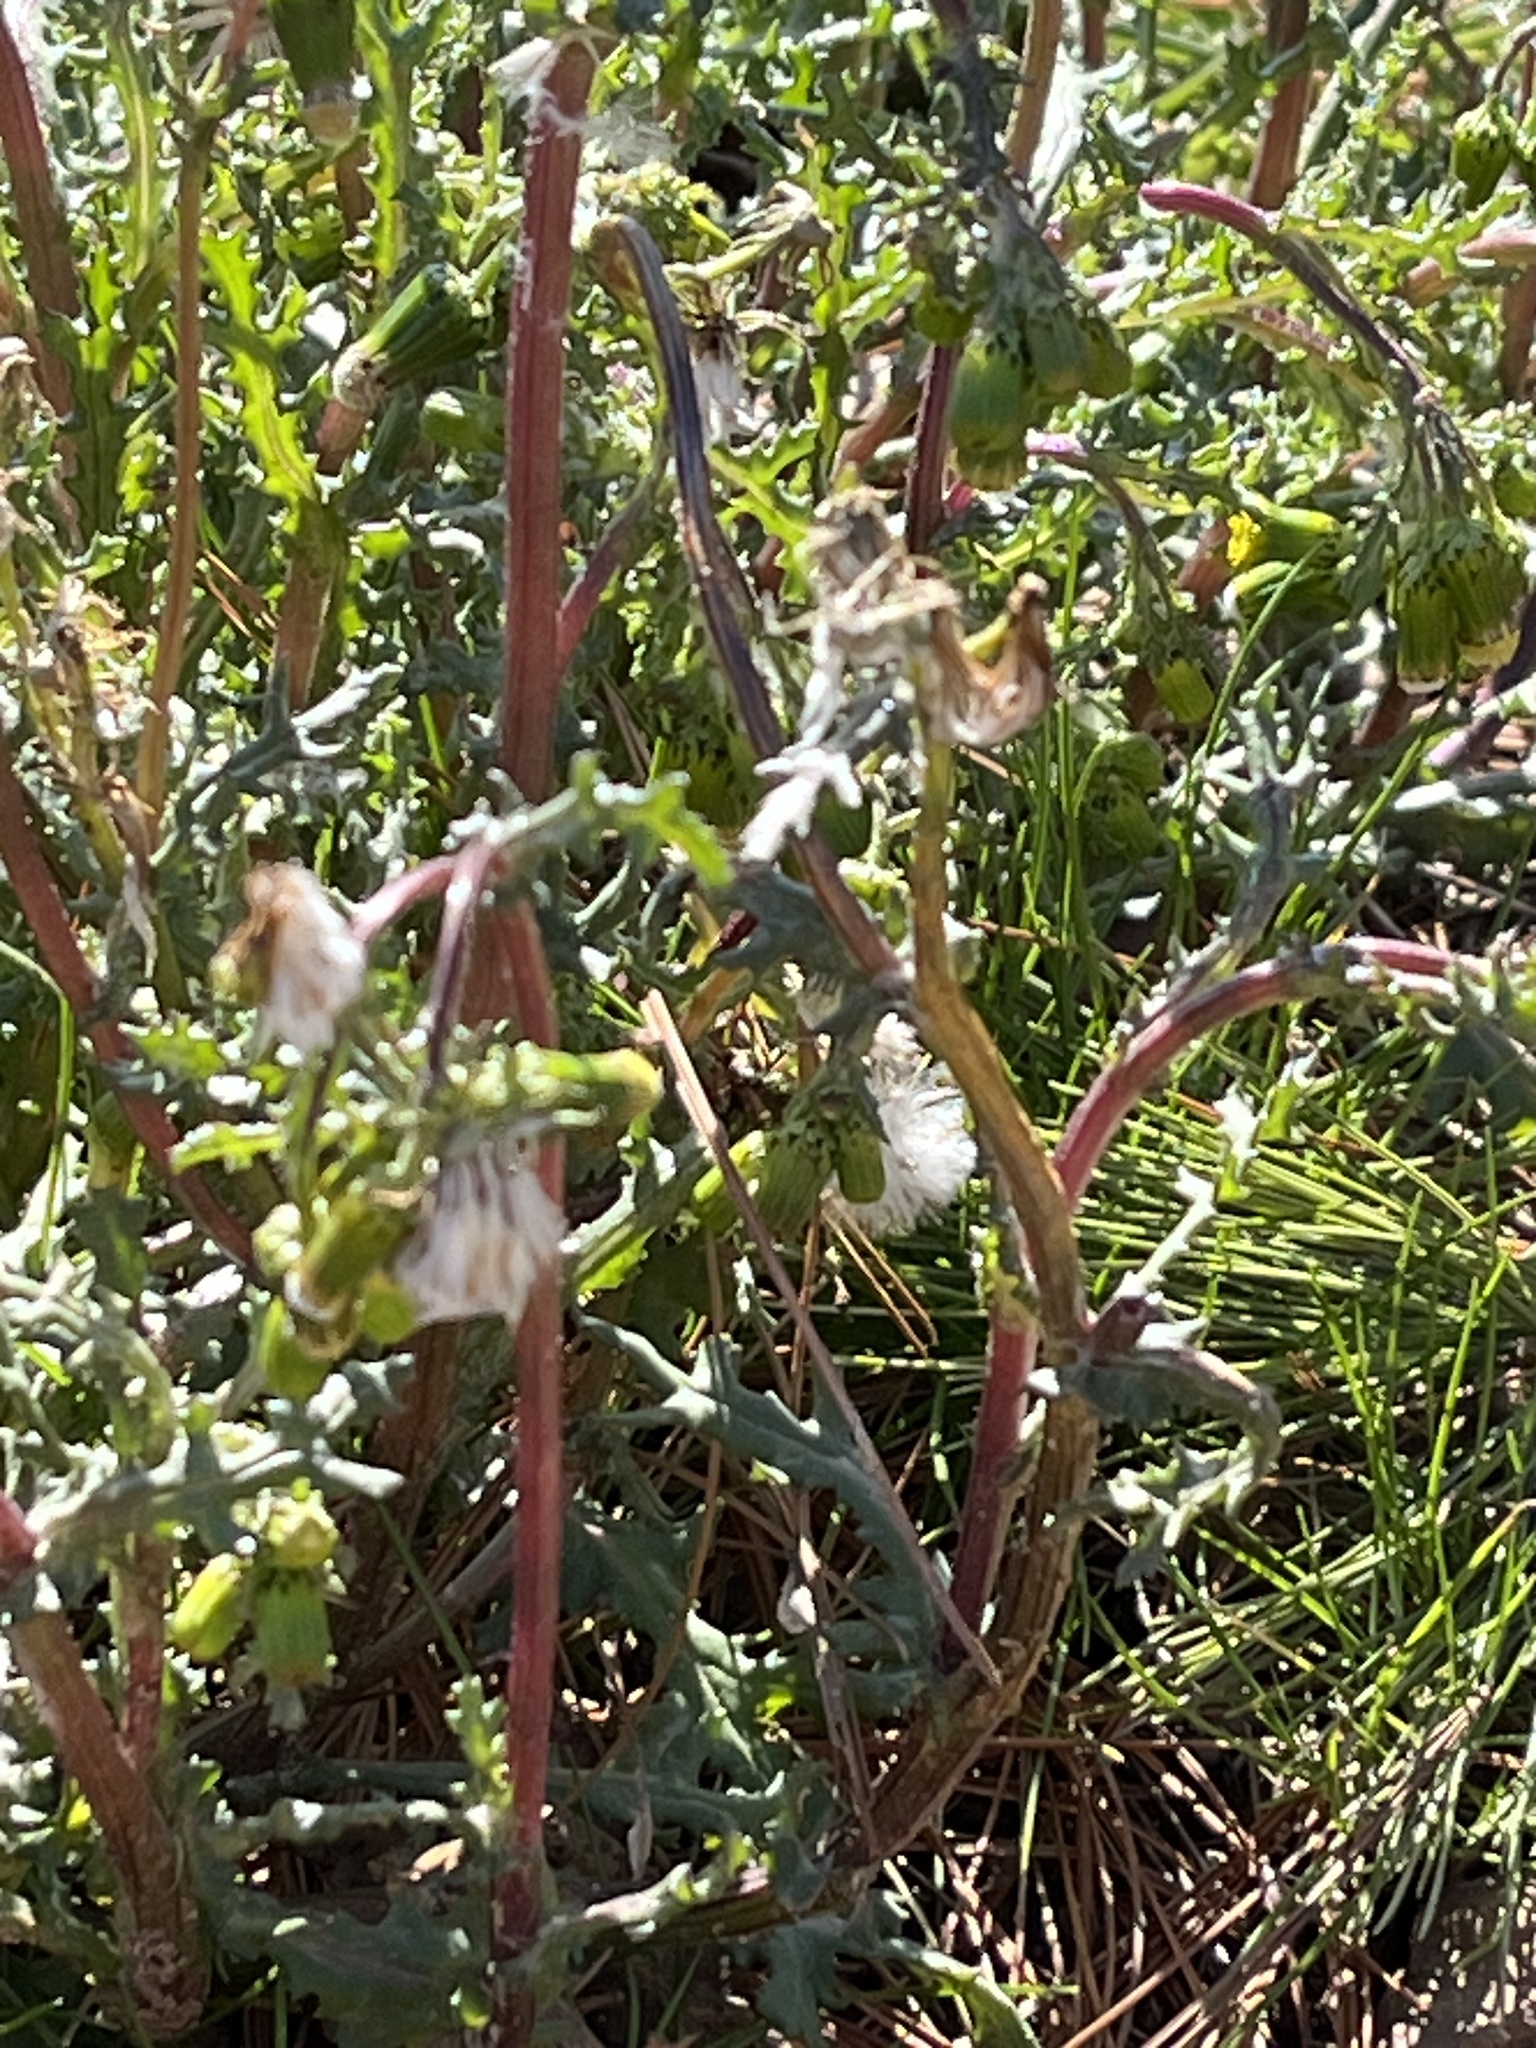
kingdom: Plantae
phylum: Tracheophyta
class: Magnoliopsida
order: Asterales
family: Asteraceae
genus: Senecio
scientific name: Senecio vulgaris
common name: Old-man-in-the-spring
